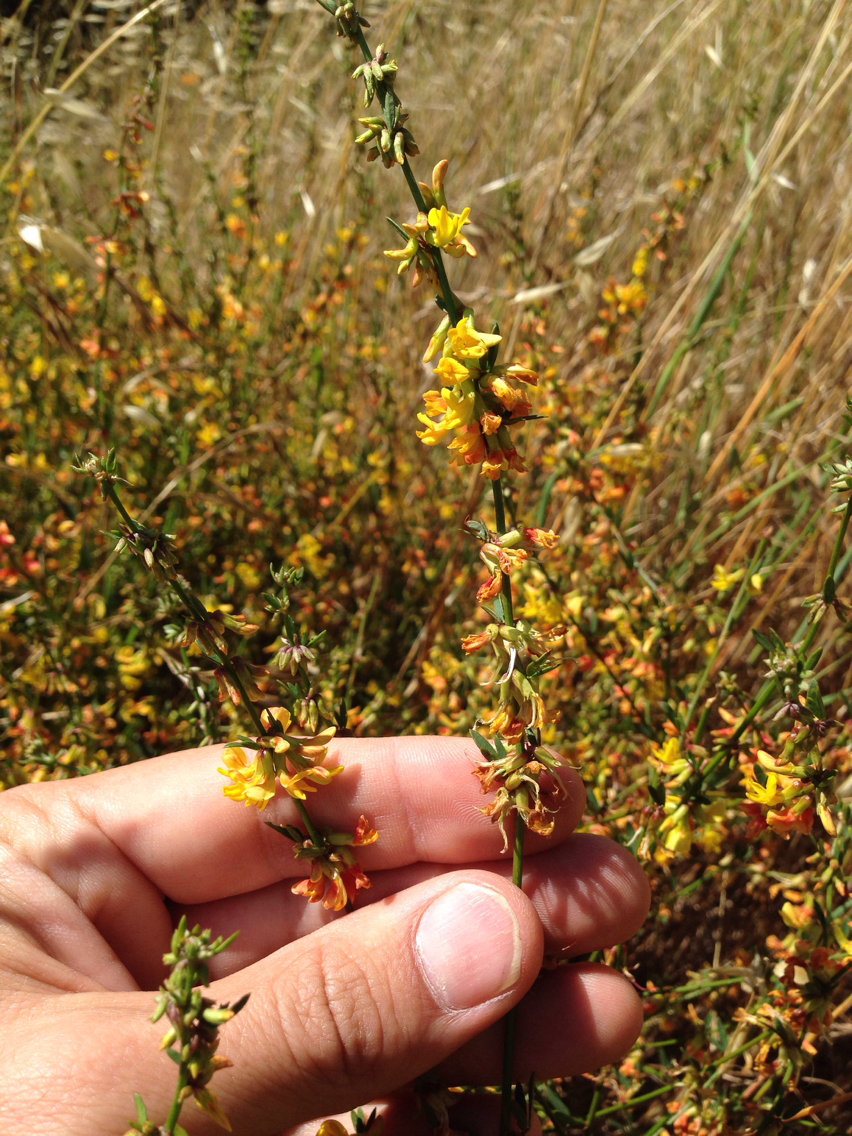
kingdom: Plantae
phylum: Tracheophyta
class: Magnoliopsida
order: Fabales
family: Fabaceae
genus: Acmispon
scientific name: Acmispon glaber
